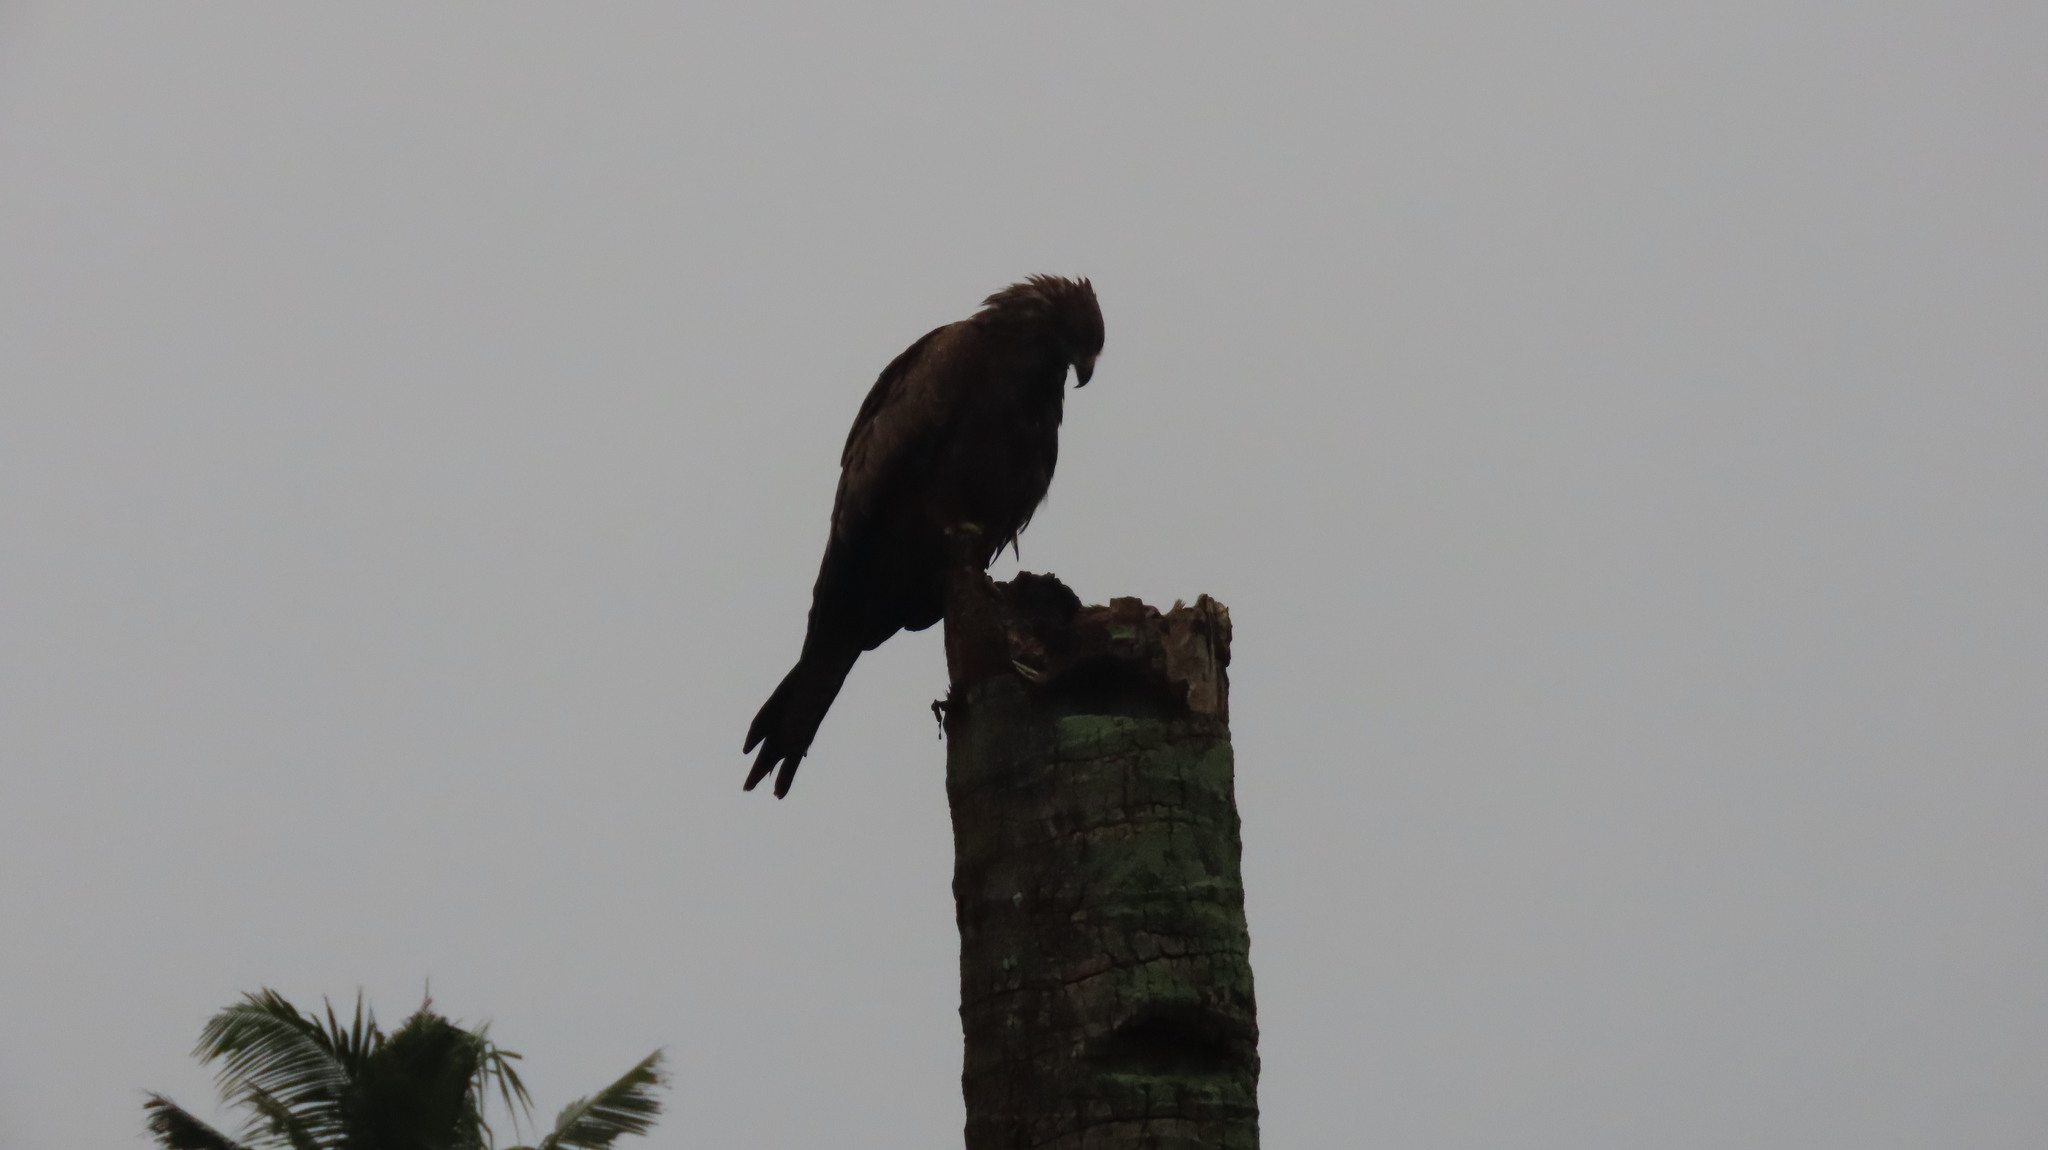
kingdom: Animalia
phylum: Chordata
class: Aves
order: Accipitriformes
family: Accipitridae
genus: Milvus
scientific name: Milvus migrans
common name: Black kite
